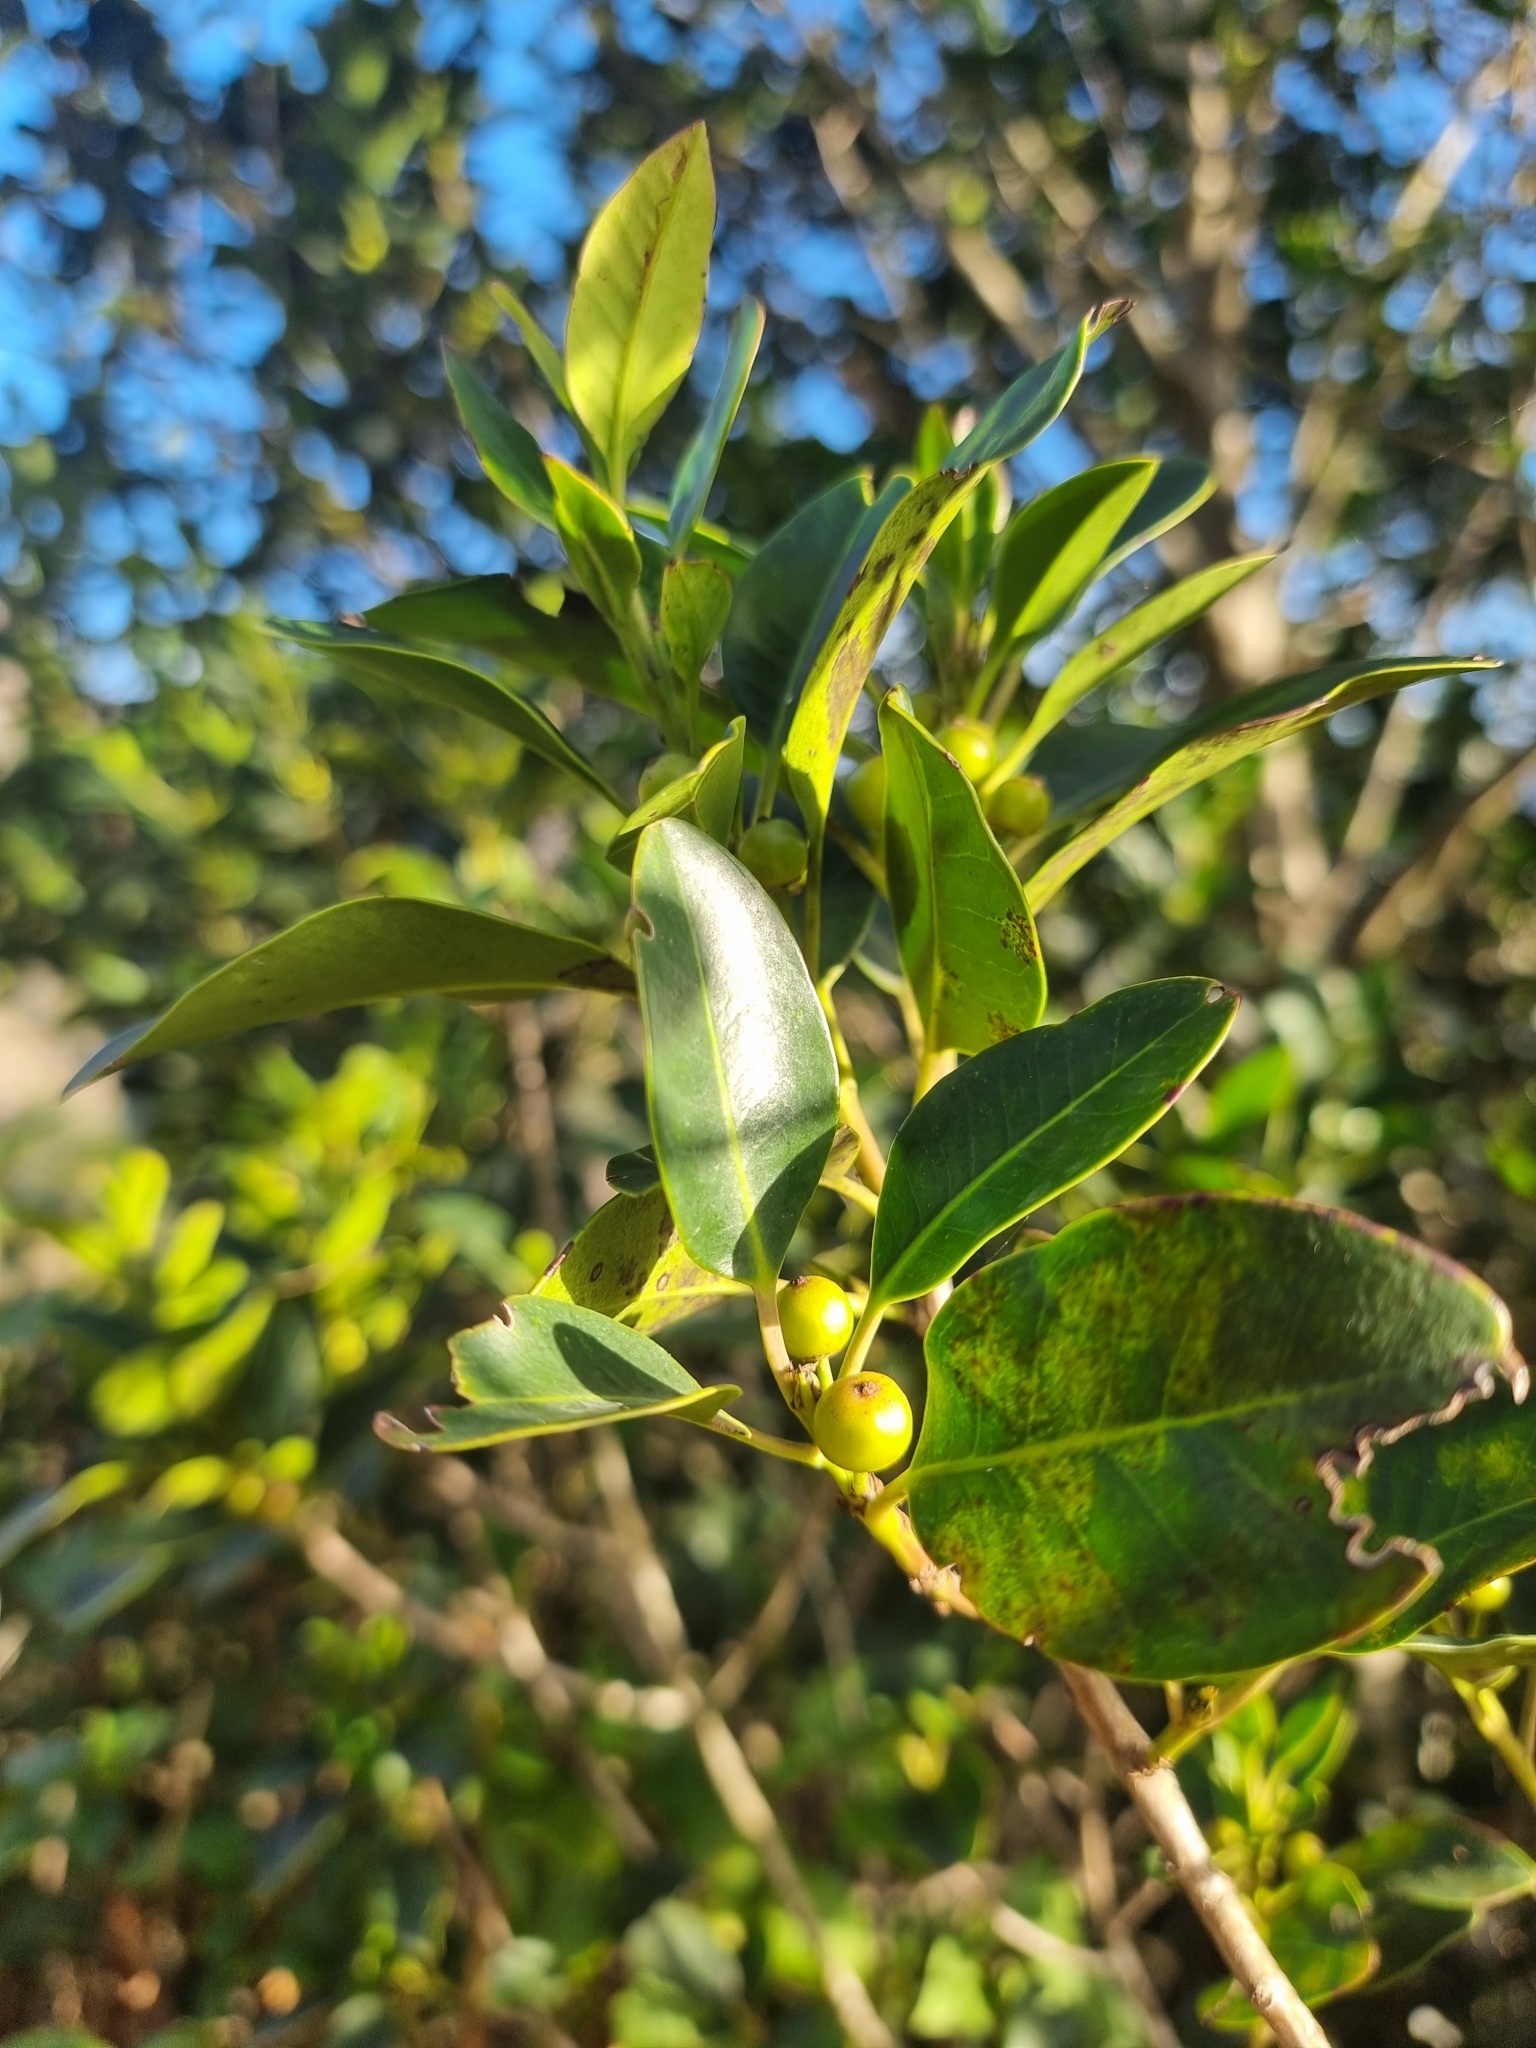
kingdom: Plantae
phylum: Tracheophyta
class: Magnoliopsida
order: Aquifoliales
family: Aquifoliaceae
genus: Ilex
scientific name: Ilex canariensis
